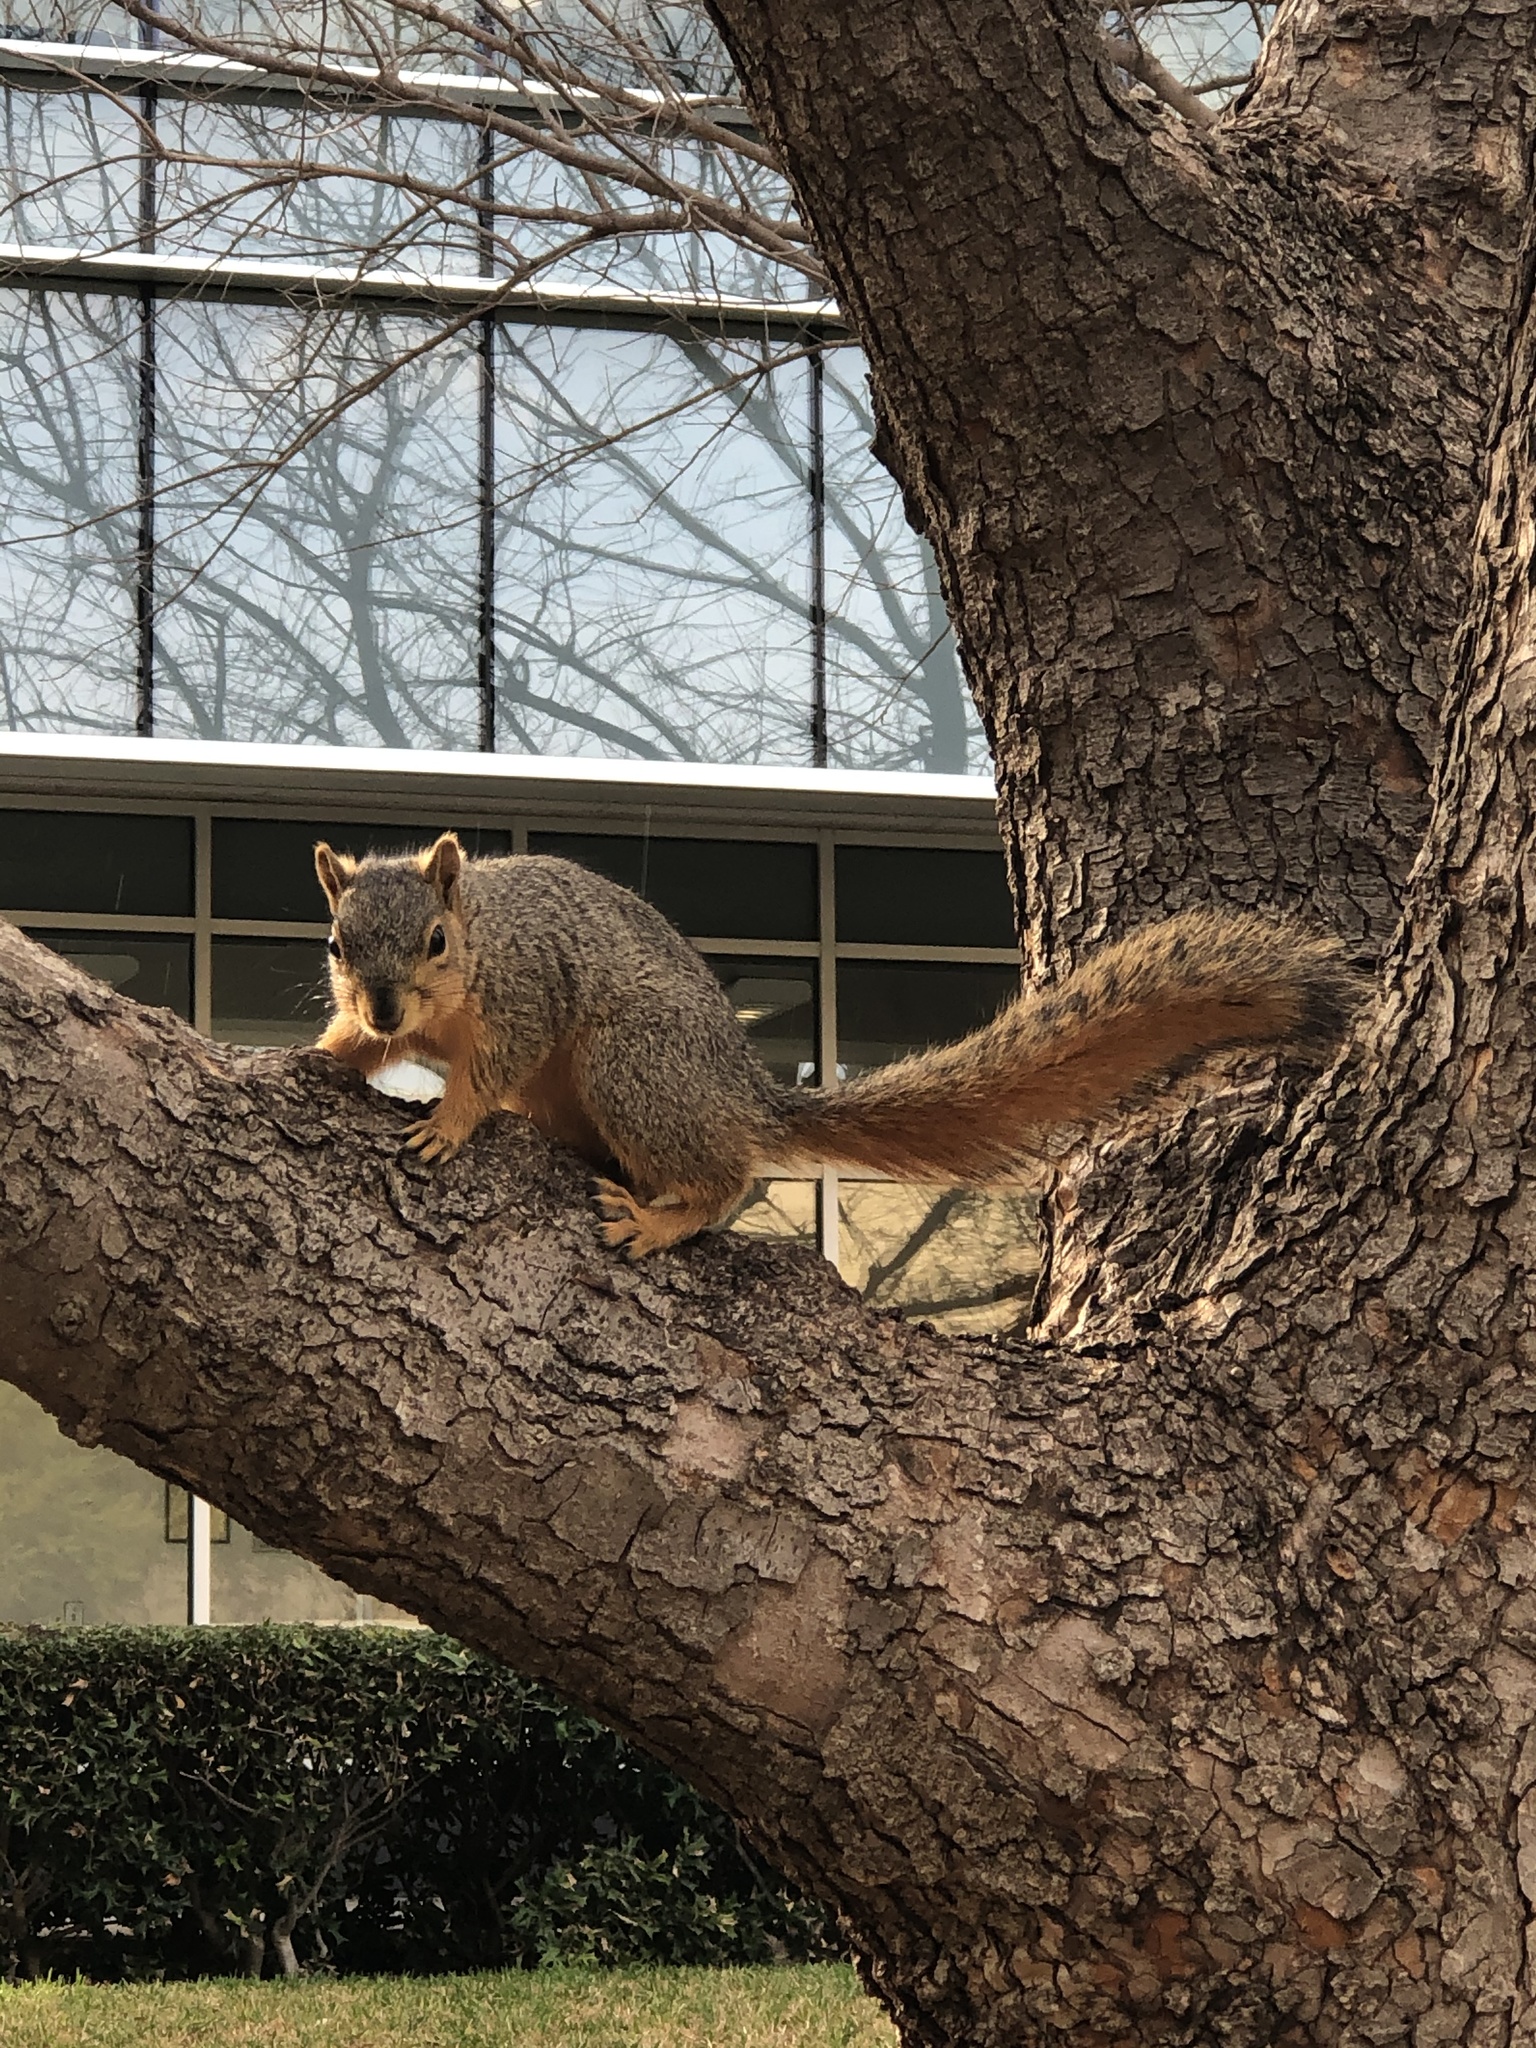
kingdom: Animalia
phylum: Chordata
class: Mammalia
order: Rodentia
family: Sciuridae
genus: Sciurus
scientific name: Sciurus niger
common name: Fox squirrel
